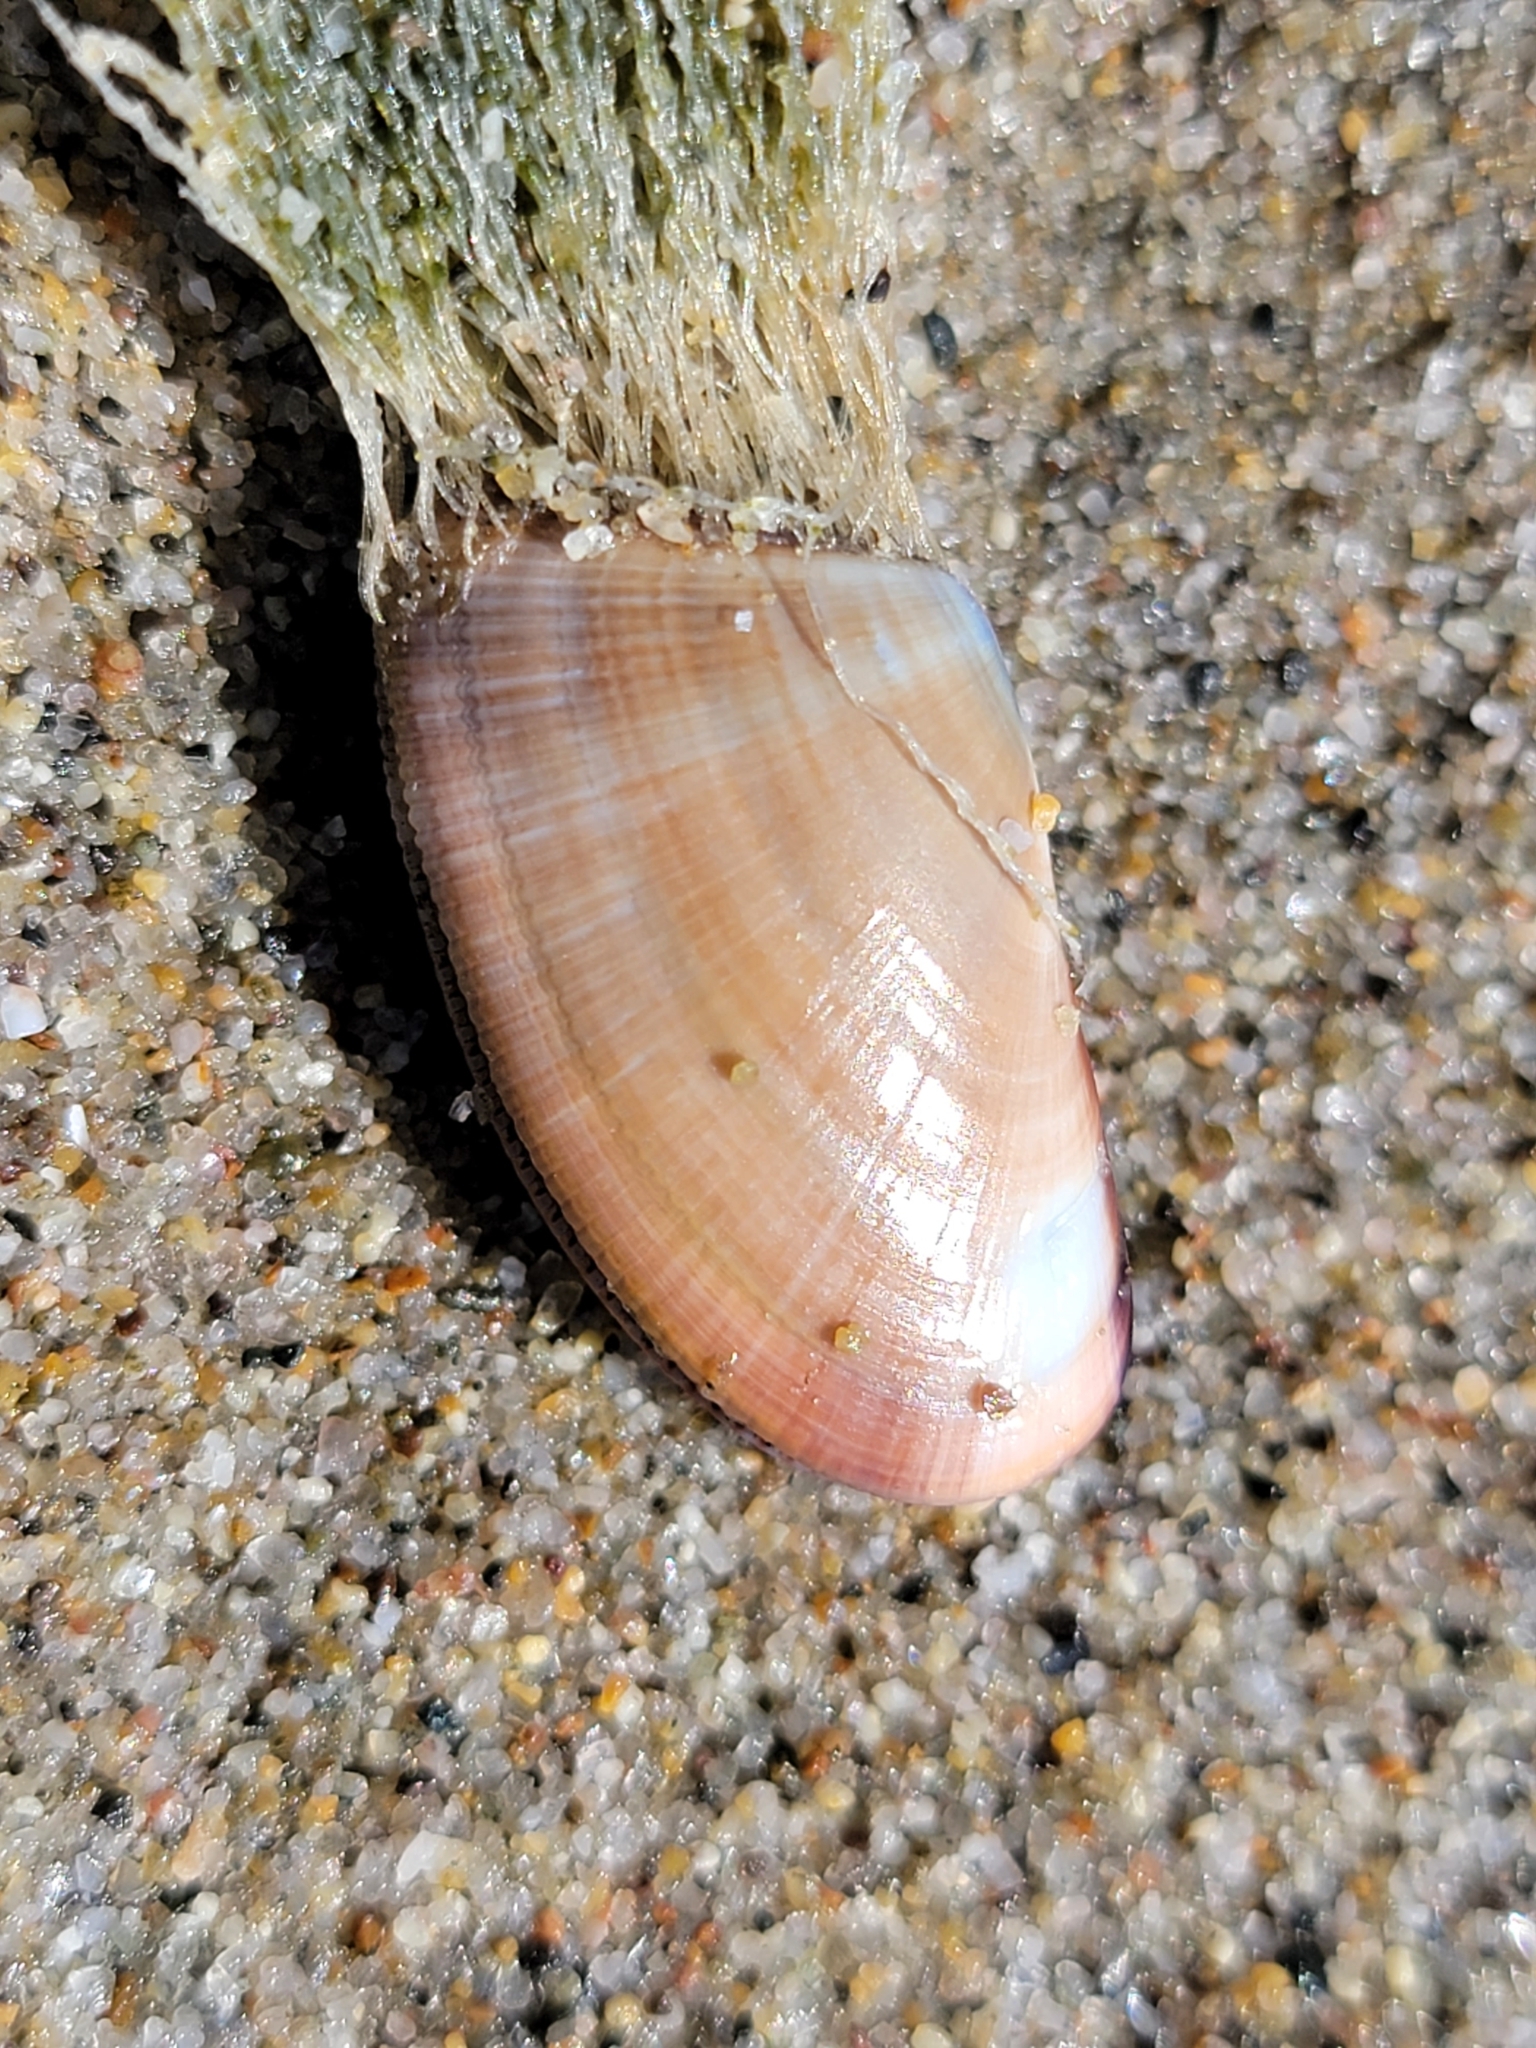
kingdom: Animalia
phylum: Mollusca
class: Bivalvia
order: Cardiida
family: Donacidae
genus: Donax
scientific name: Donax gouldii
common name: Gould beanclam
